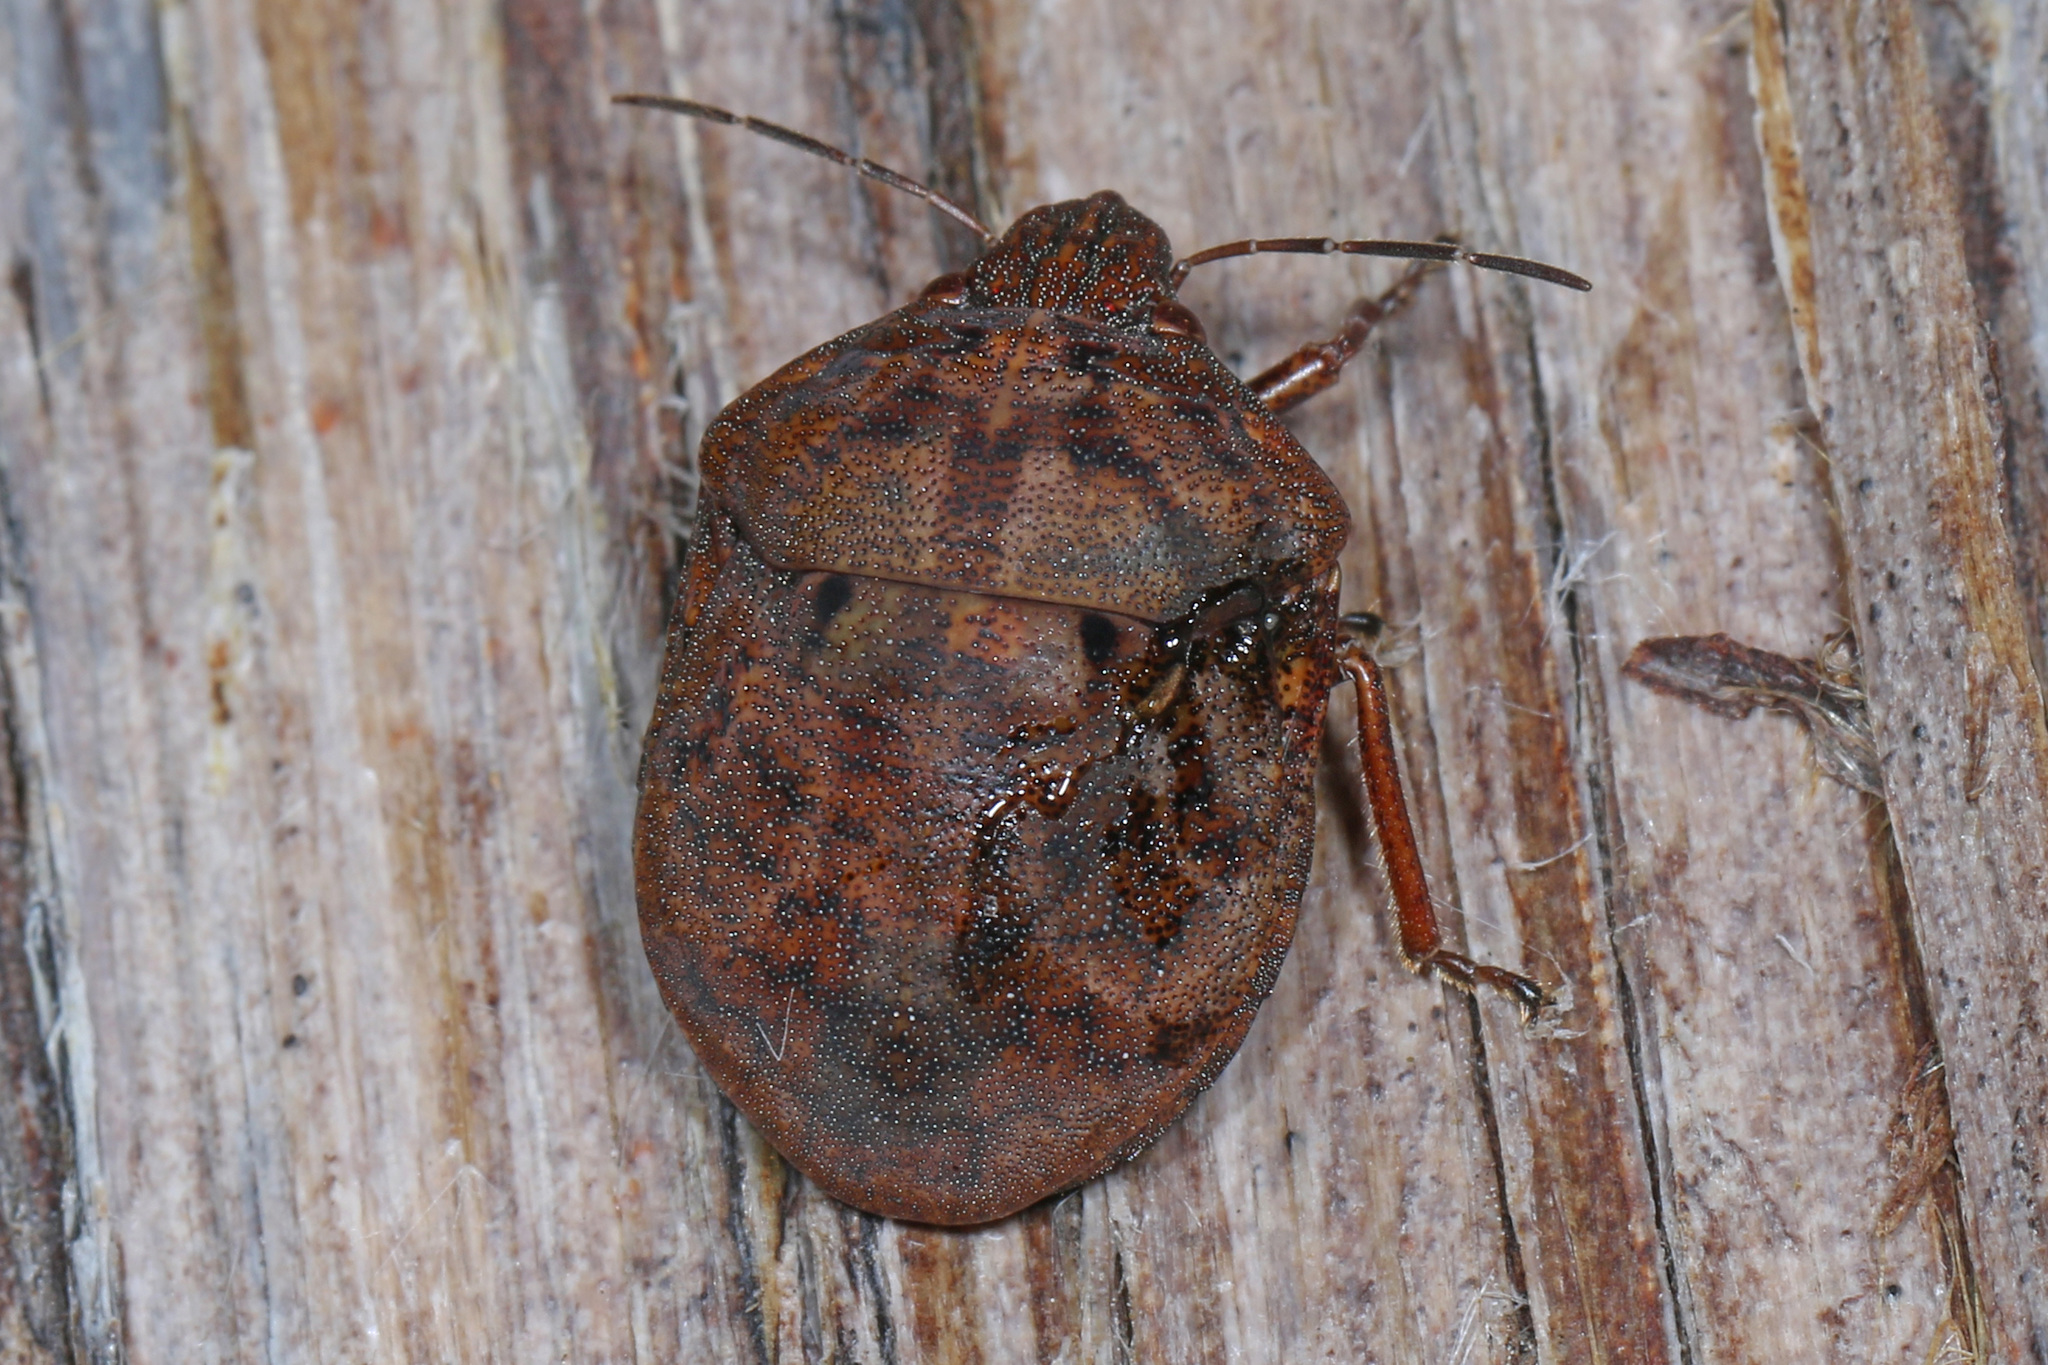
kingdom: Animalia
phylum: Arthropoda
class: Insecta
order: Hemiptera
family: Scutelleridae
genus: Tetyra
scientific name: Tetyra bipunctata
